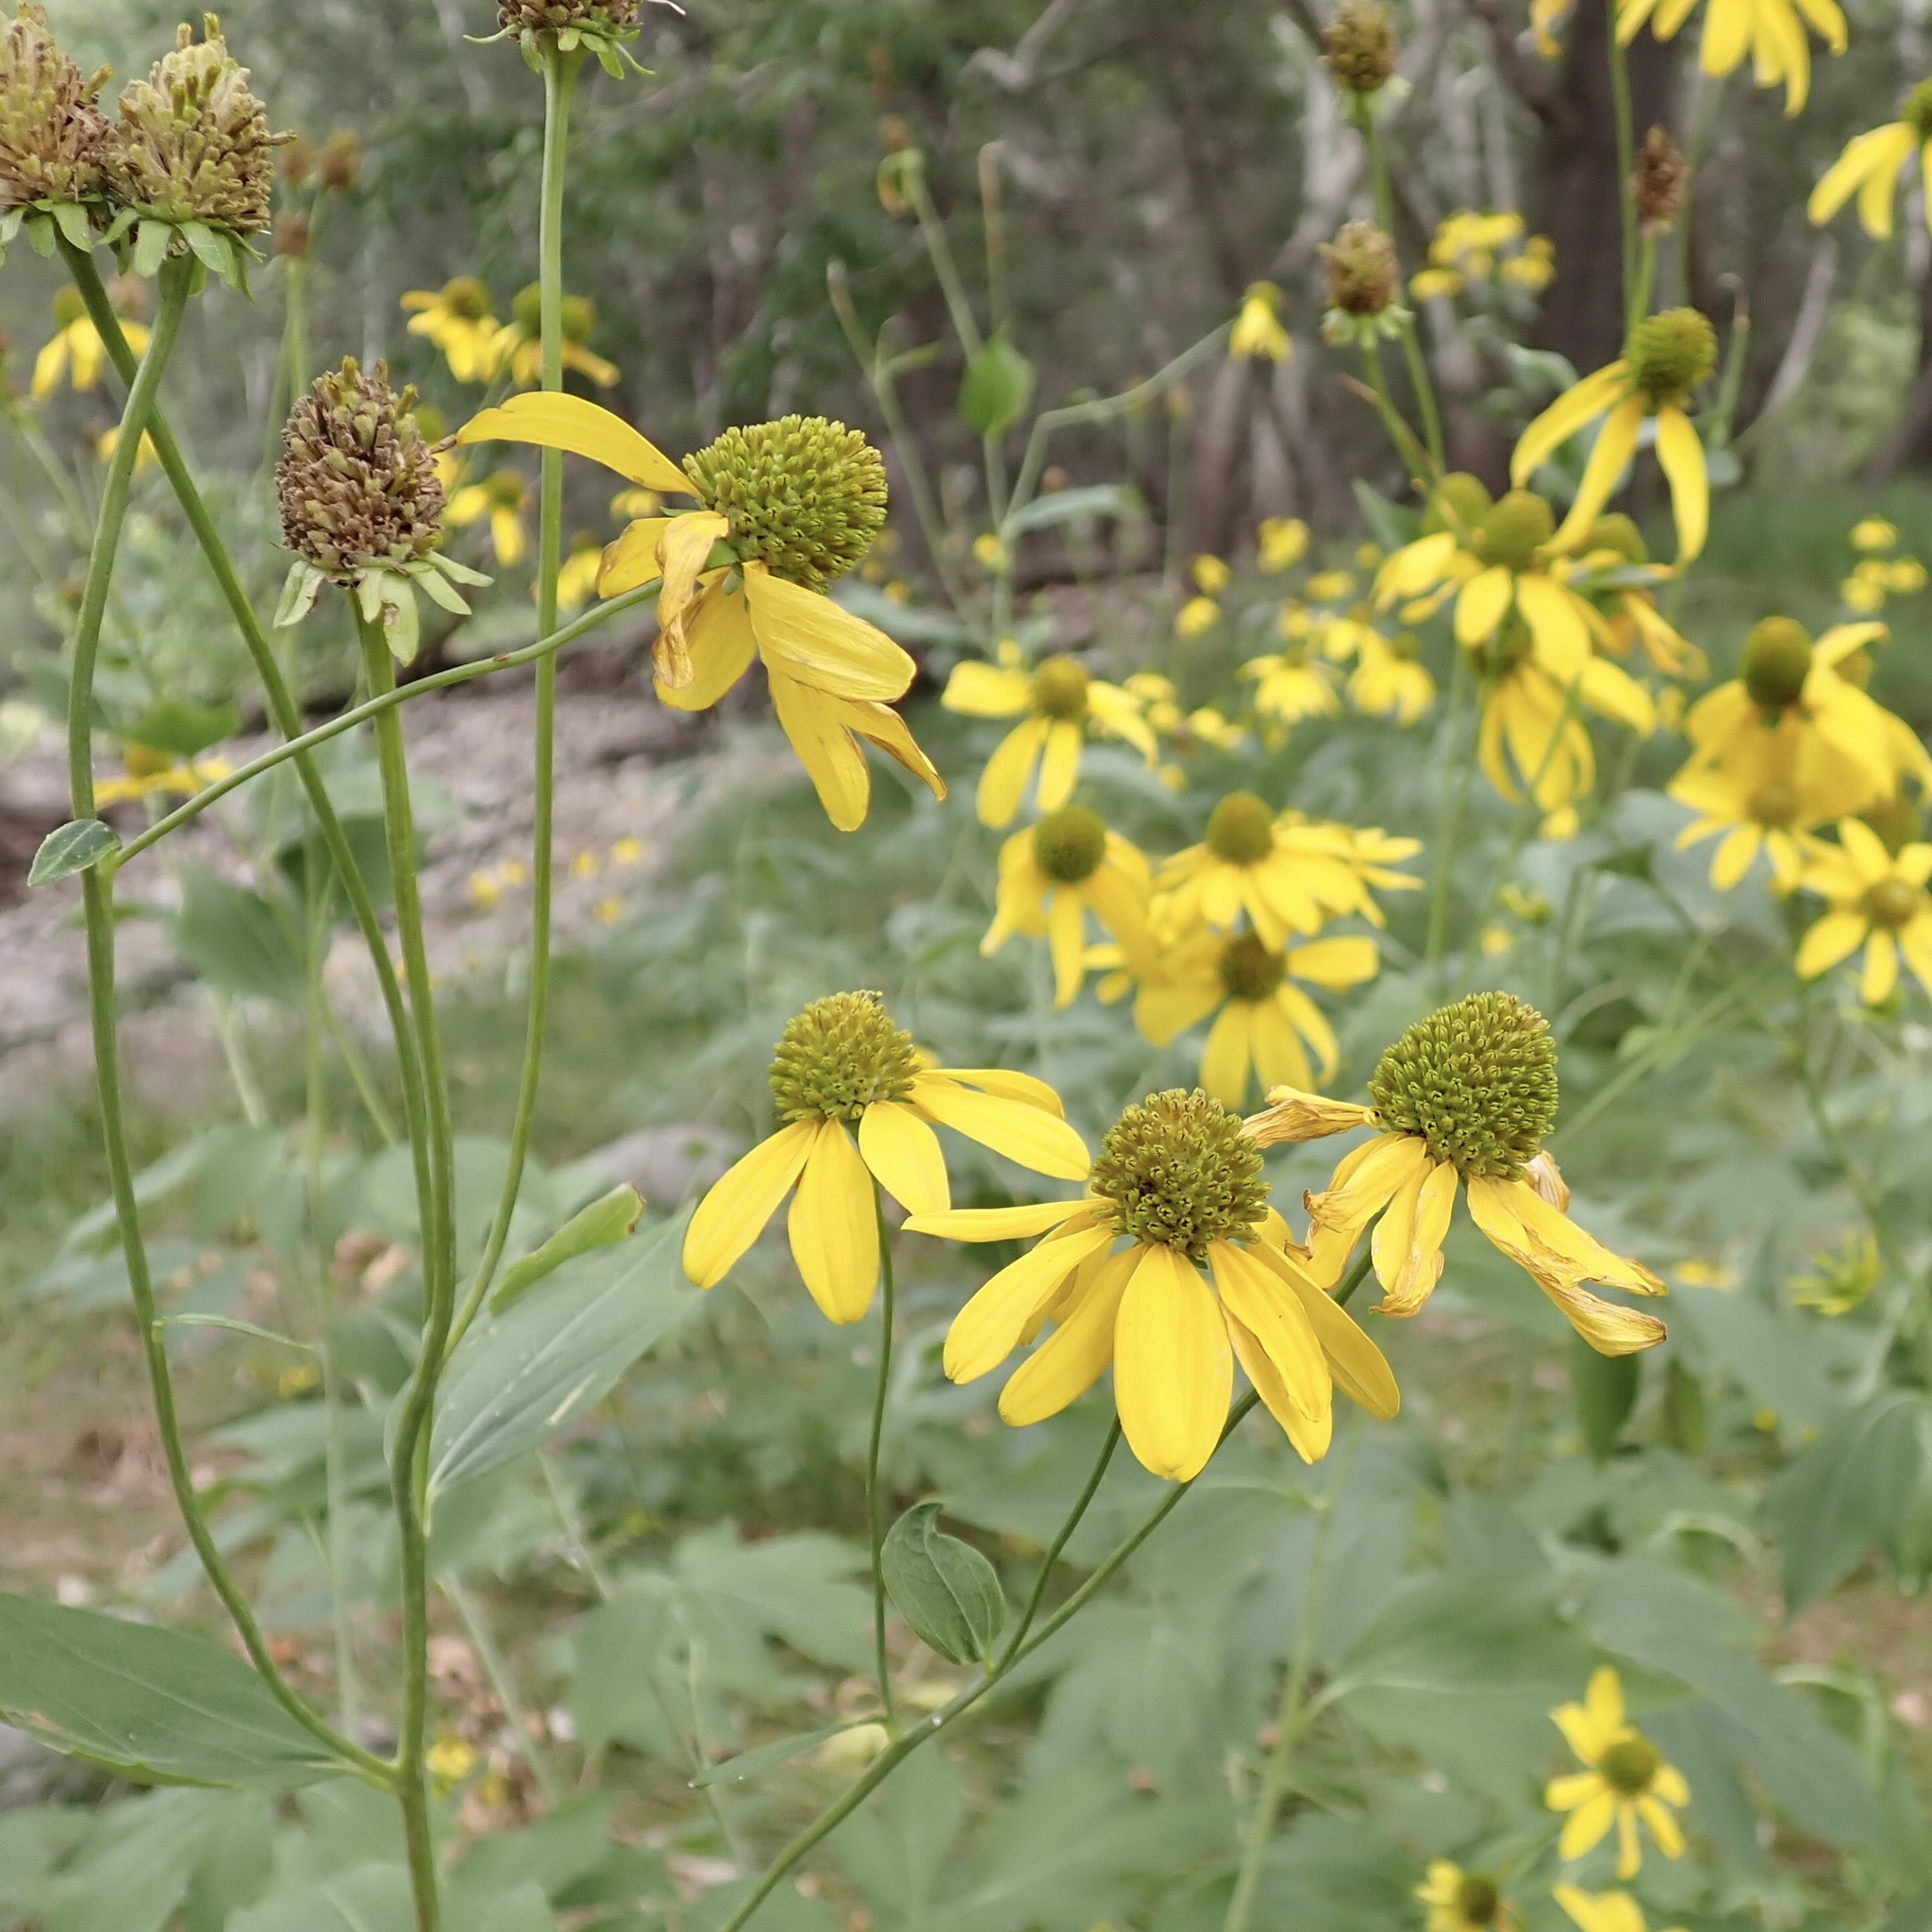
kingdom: Plantae
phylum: Tracheophyta
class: Magnoliopsida
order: Asterales
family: Asteraceae
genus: Rudbeckia
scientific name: Rudbeckia laciniata
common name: Coneflower
